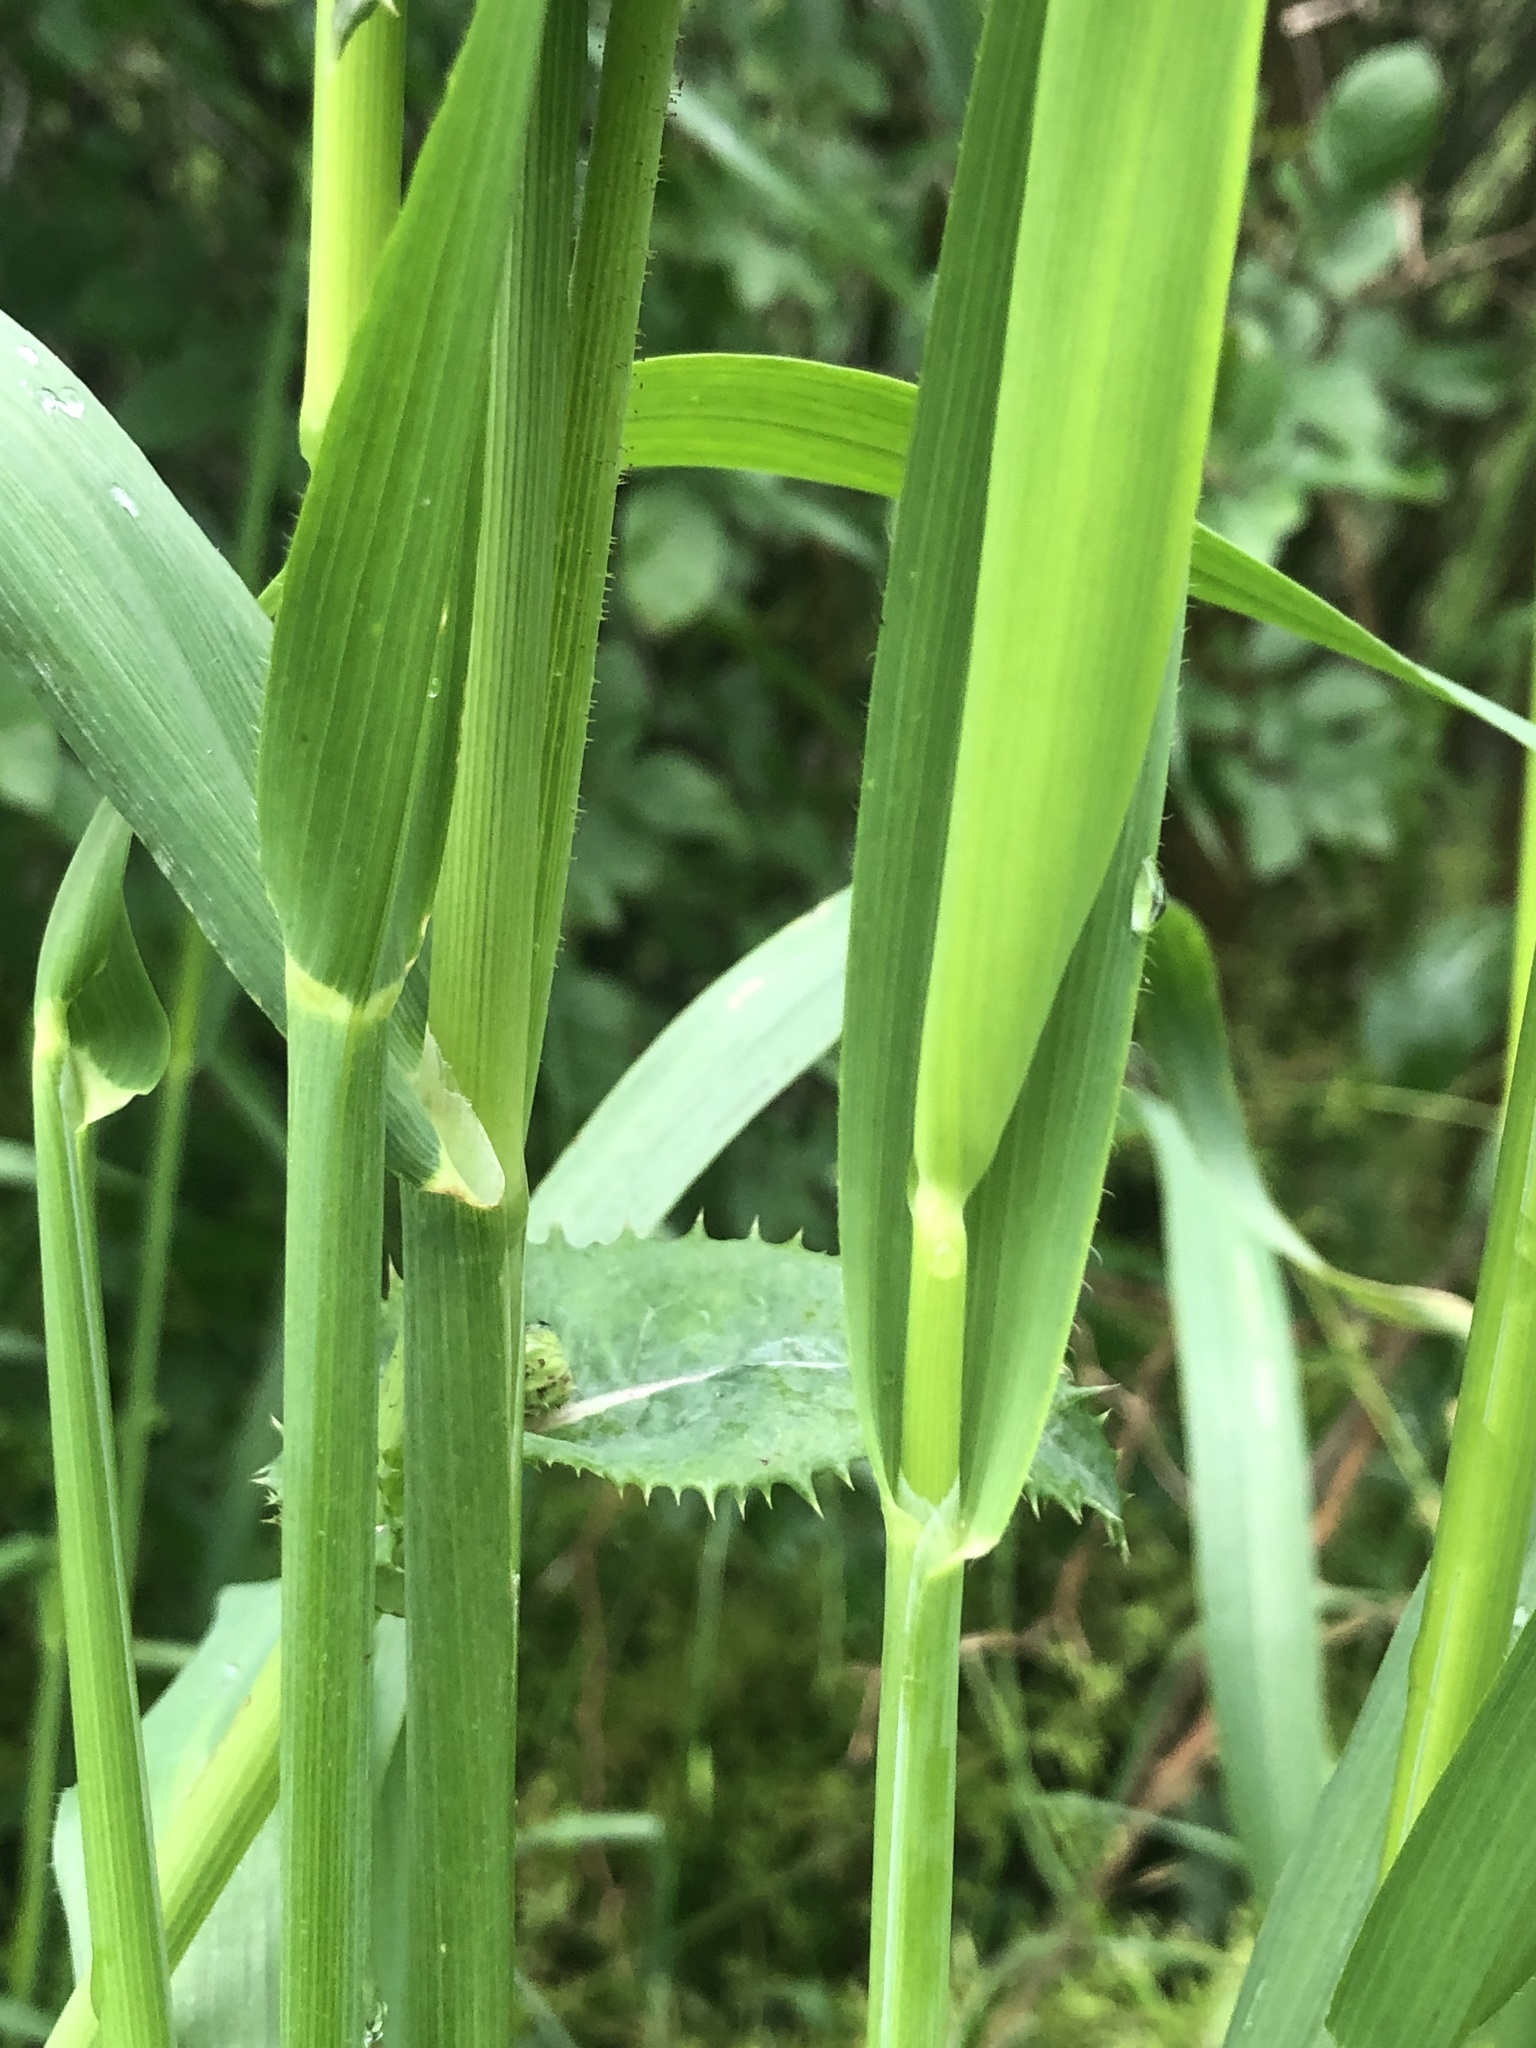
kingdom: Plantae
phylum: Tracheophyta
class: Liliopsida
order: Poales
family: Poaceae
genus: Avena
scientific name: Avena fatua
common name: Wild oat
